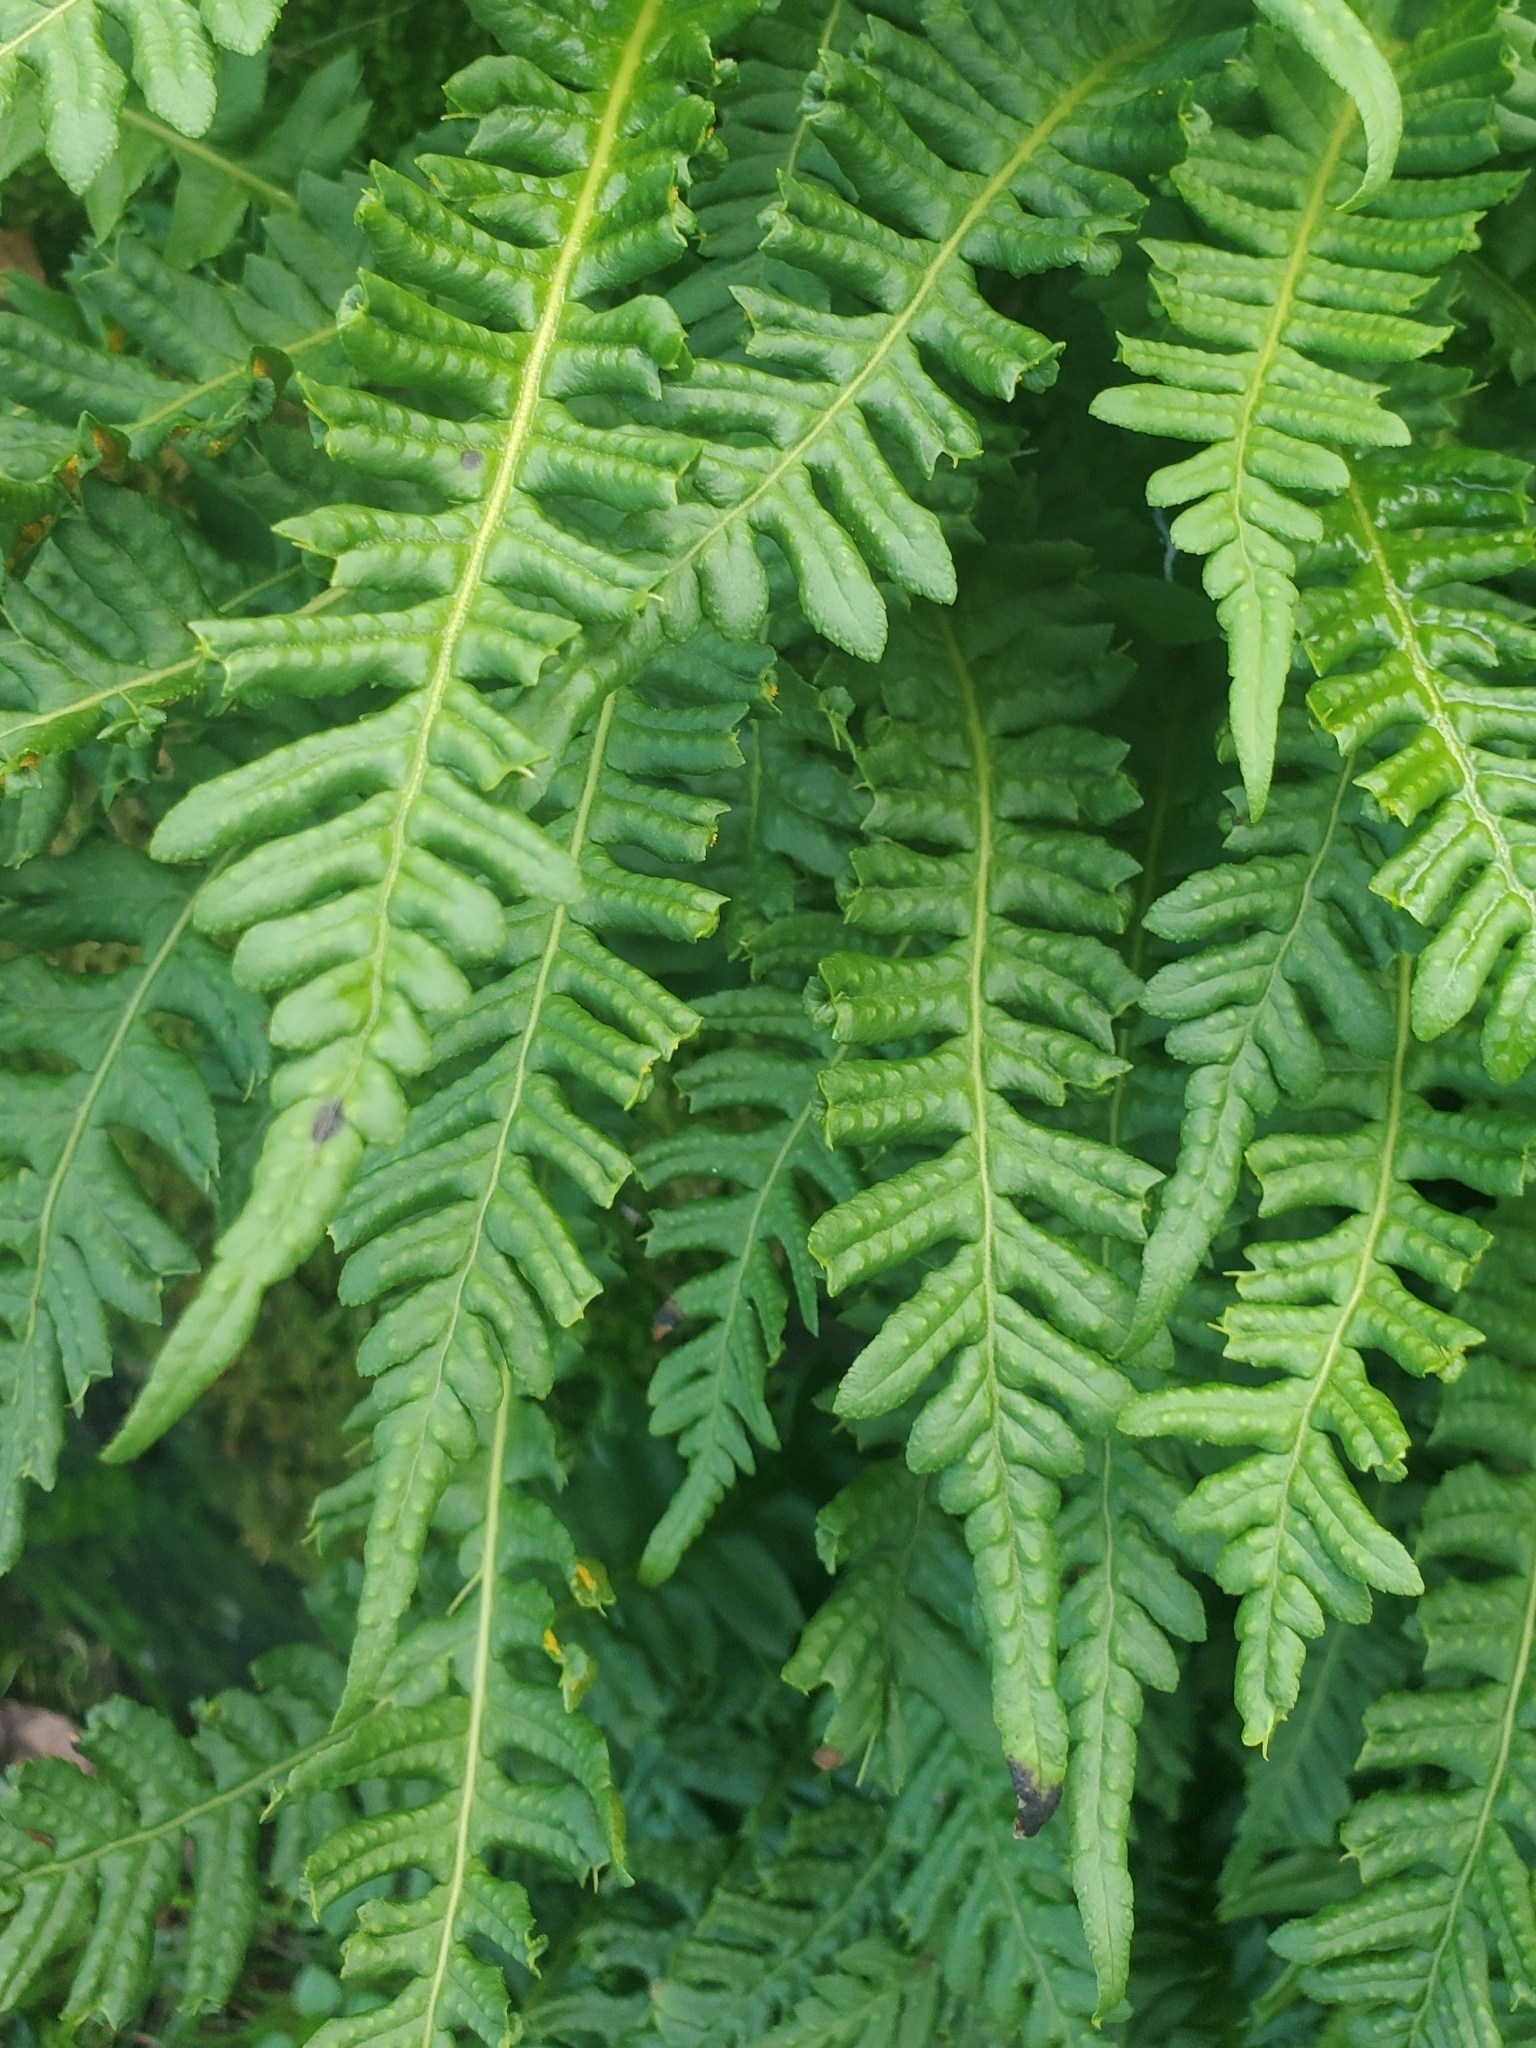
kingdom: Plantae
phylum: Tracheophyta
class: Polypodiopsida
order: Polypodiales
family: Polypodiaceae
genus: Polypodium
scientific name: Polypodium glycyrrhiza
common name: Licorice fern
